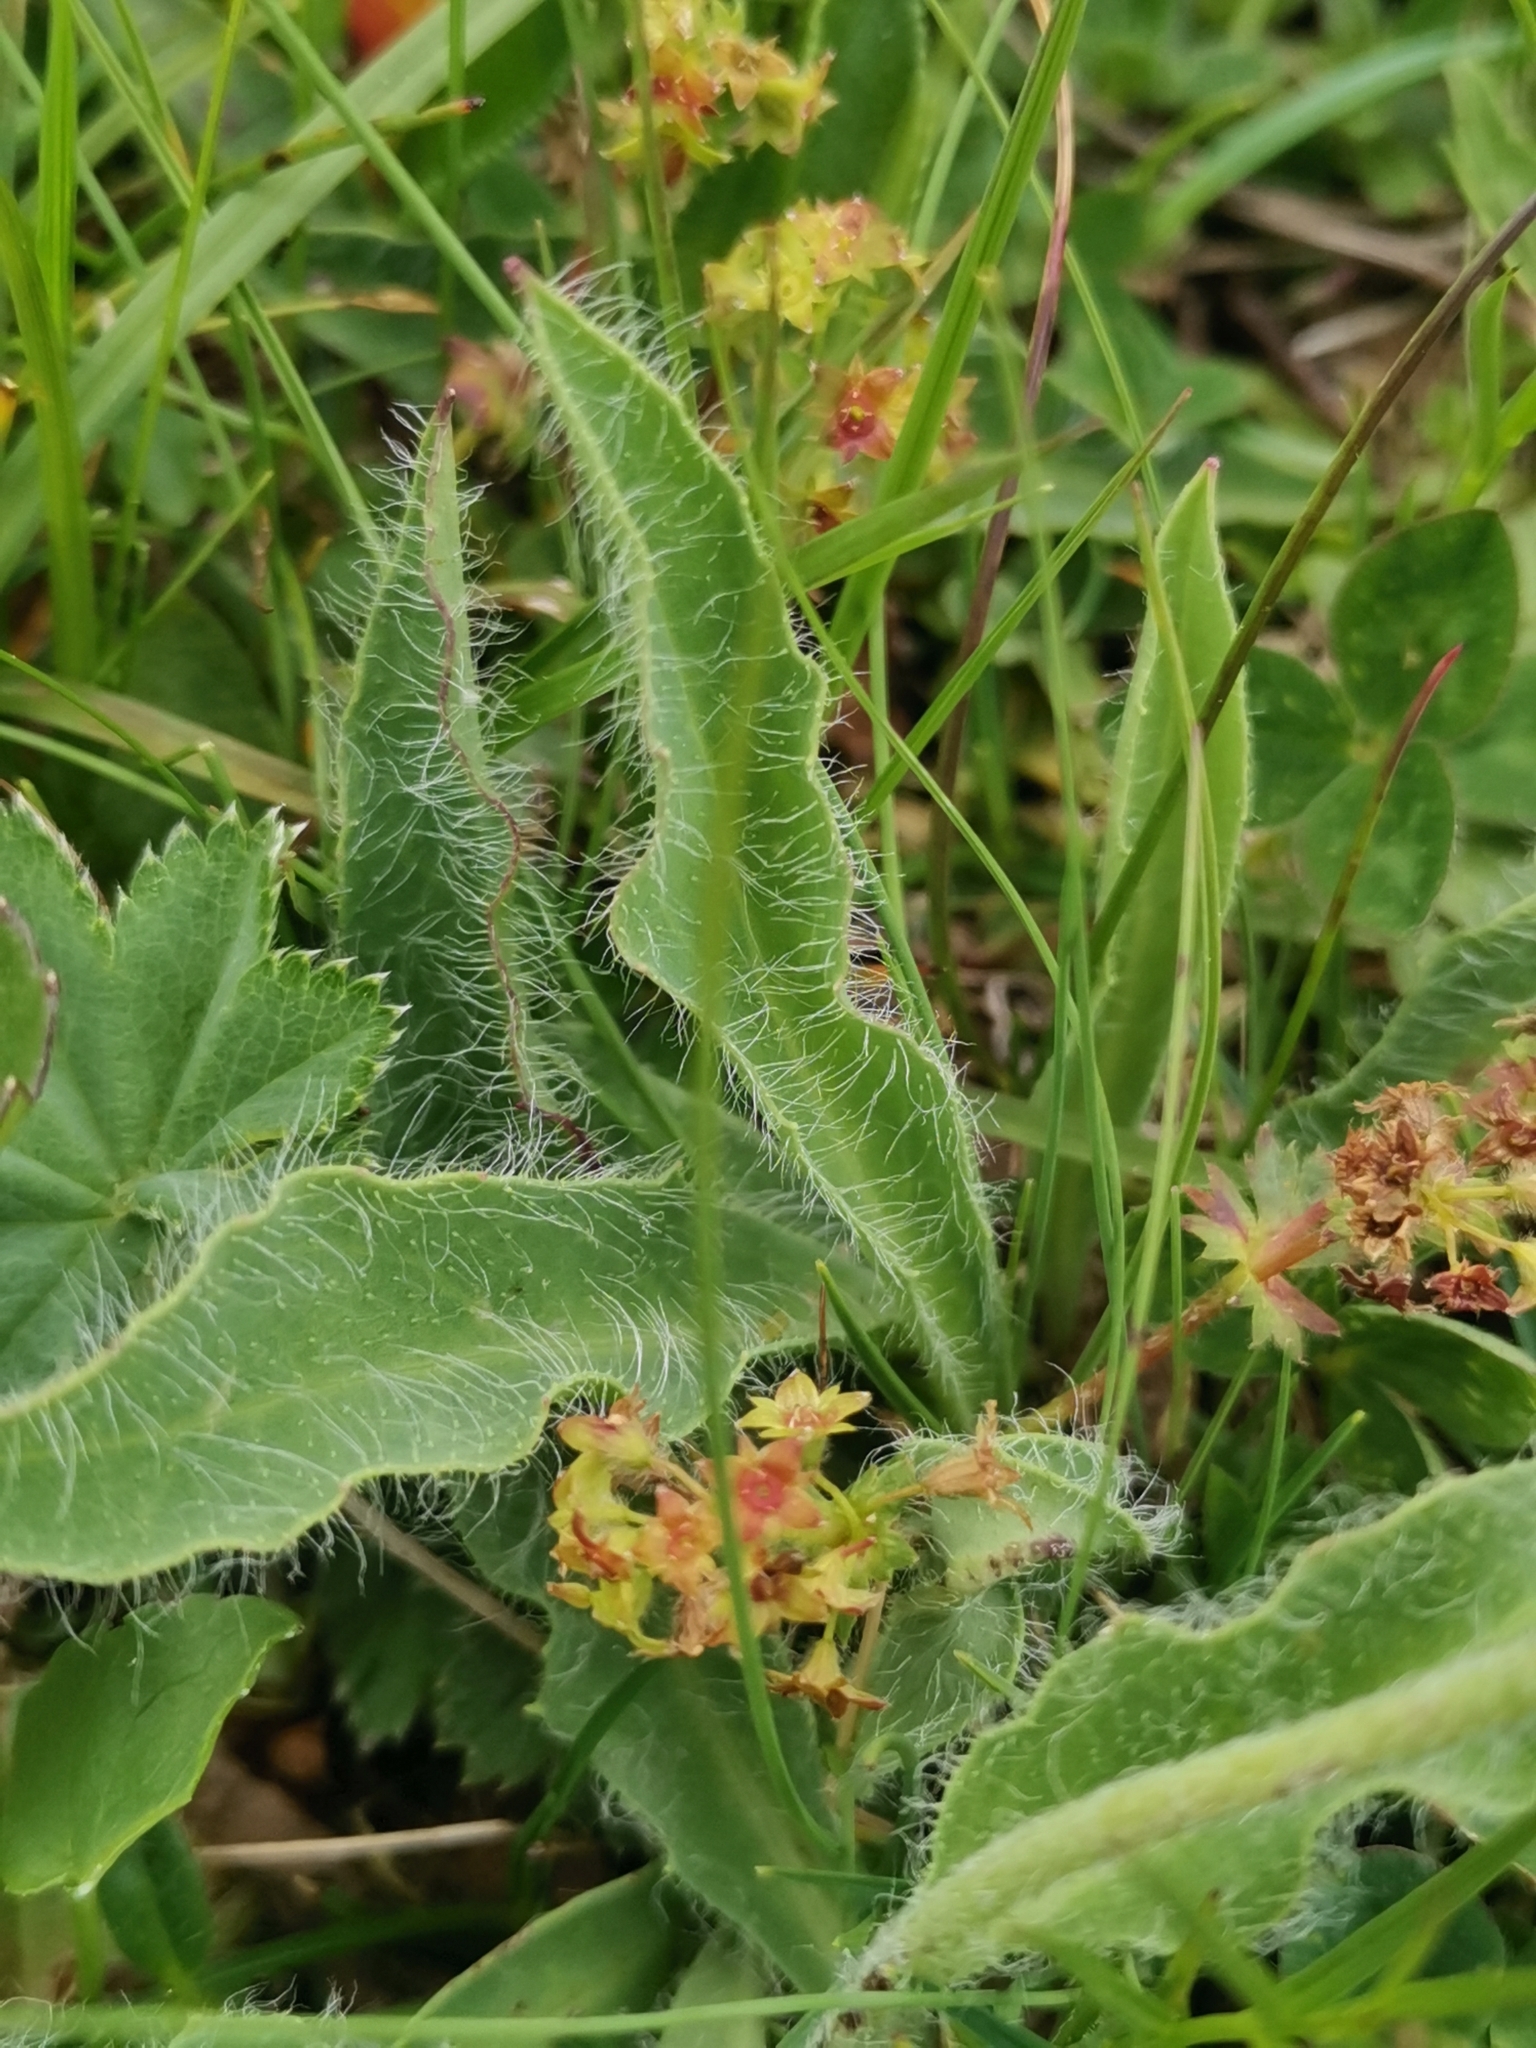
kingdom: Plantae
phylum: Tracheophyta
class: Magnoliopsida
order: Asterales
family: Asteraceae
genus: Hieracium
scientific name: Hieracium villosum
